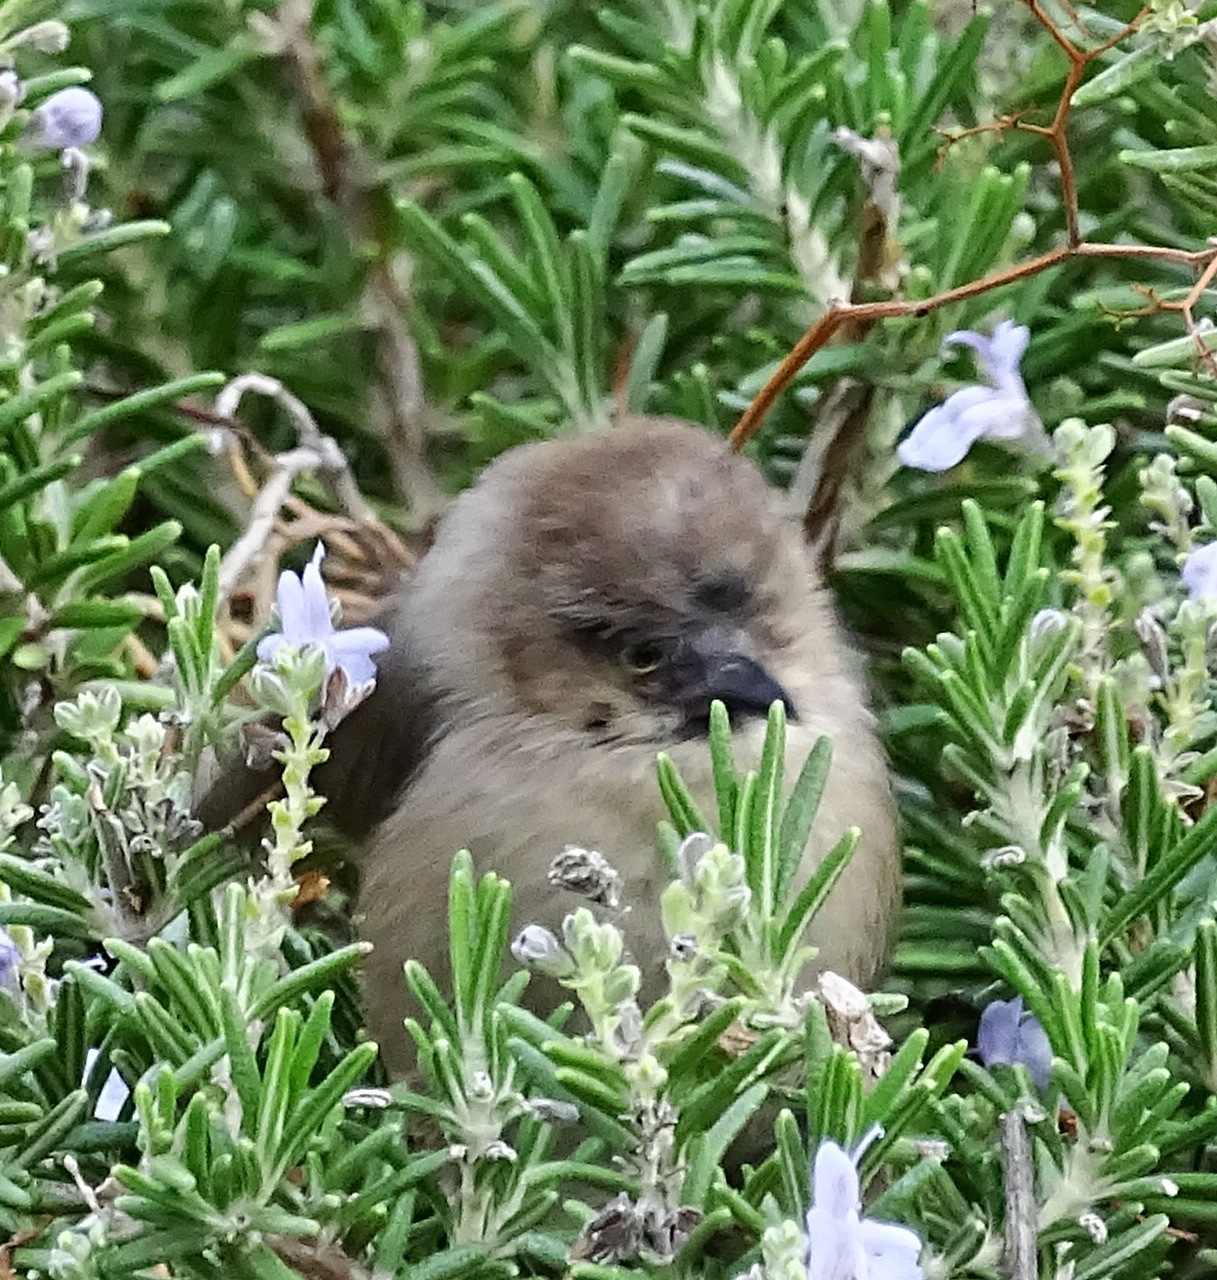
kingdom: Animalia
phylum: Chordata
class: Aves
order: Passeriformes
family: Aegithalidae
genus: Psaltriparus
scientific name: Psaltriparus minimus
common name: American bushtit
